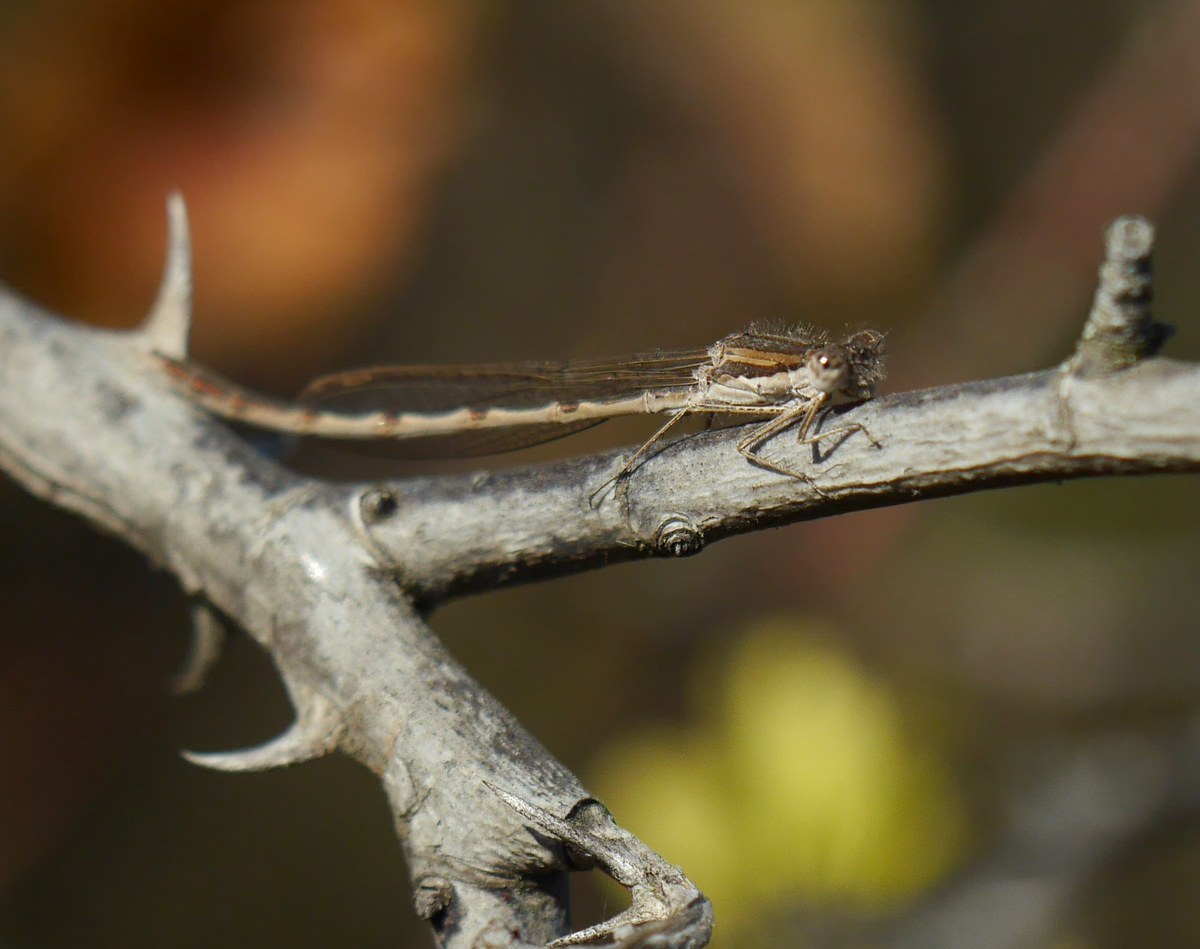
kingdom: Animalia
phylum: Arthropoda
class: Insecta
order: Odonata
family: Lestidae
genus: Sympecma
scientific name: Sympecma fusca
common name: Common winter damsel
